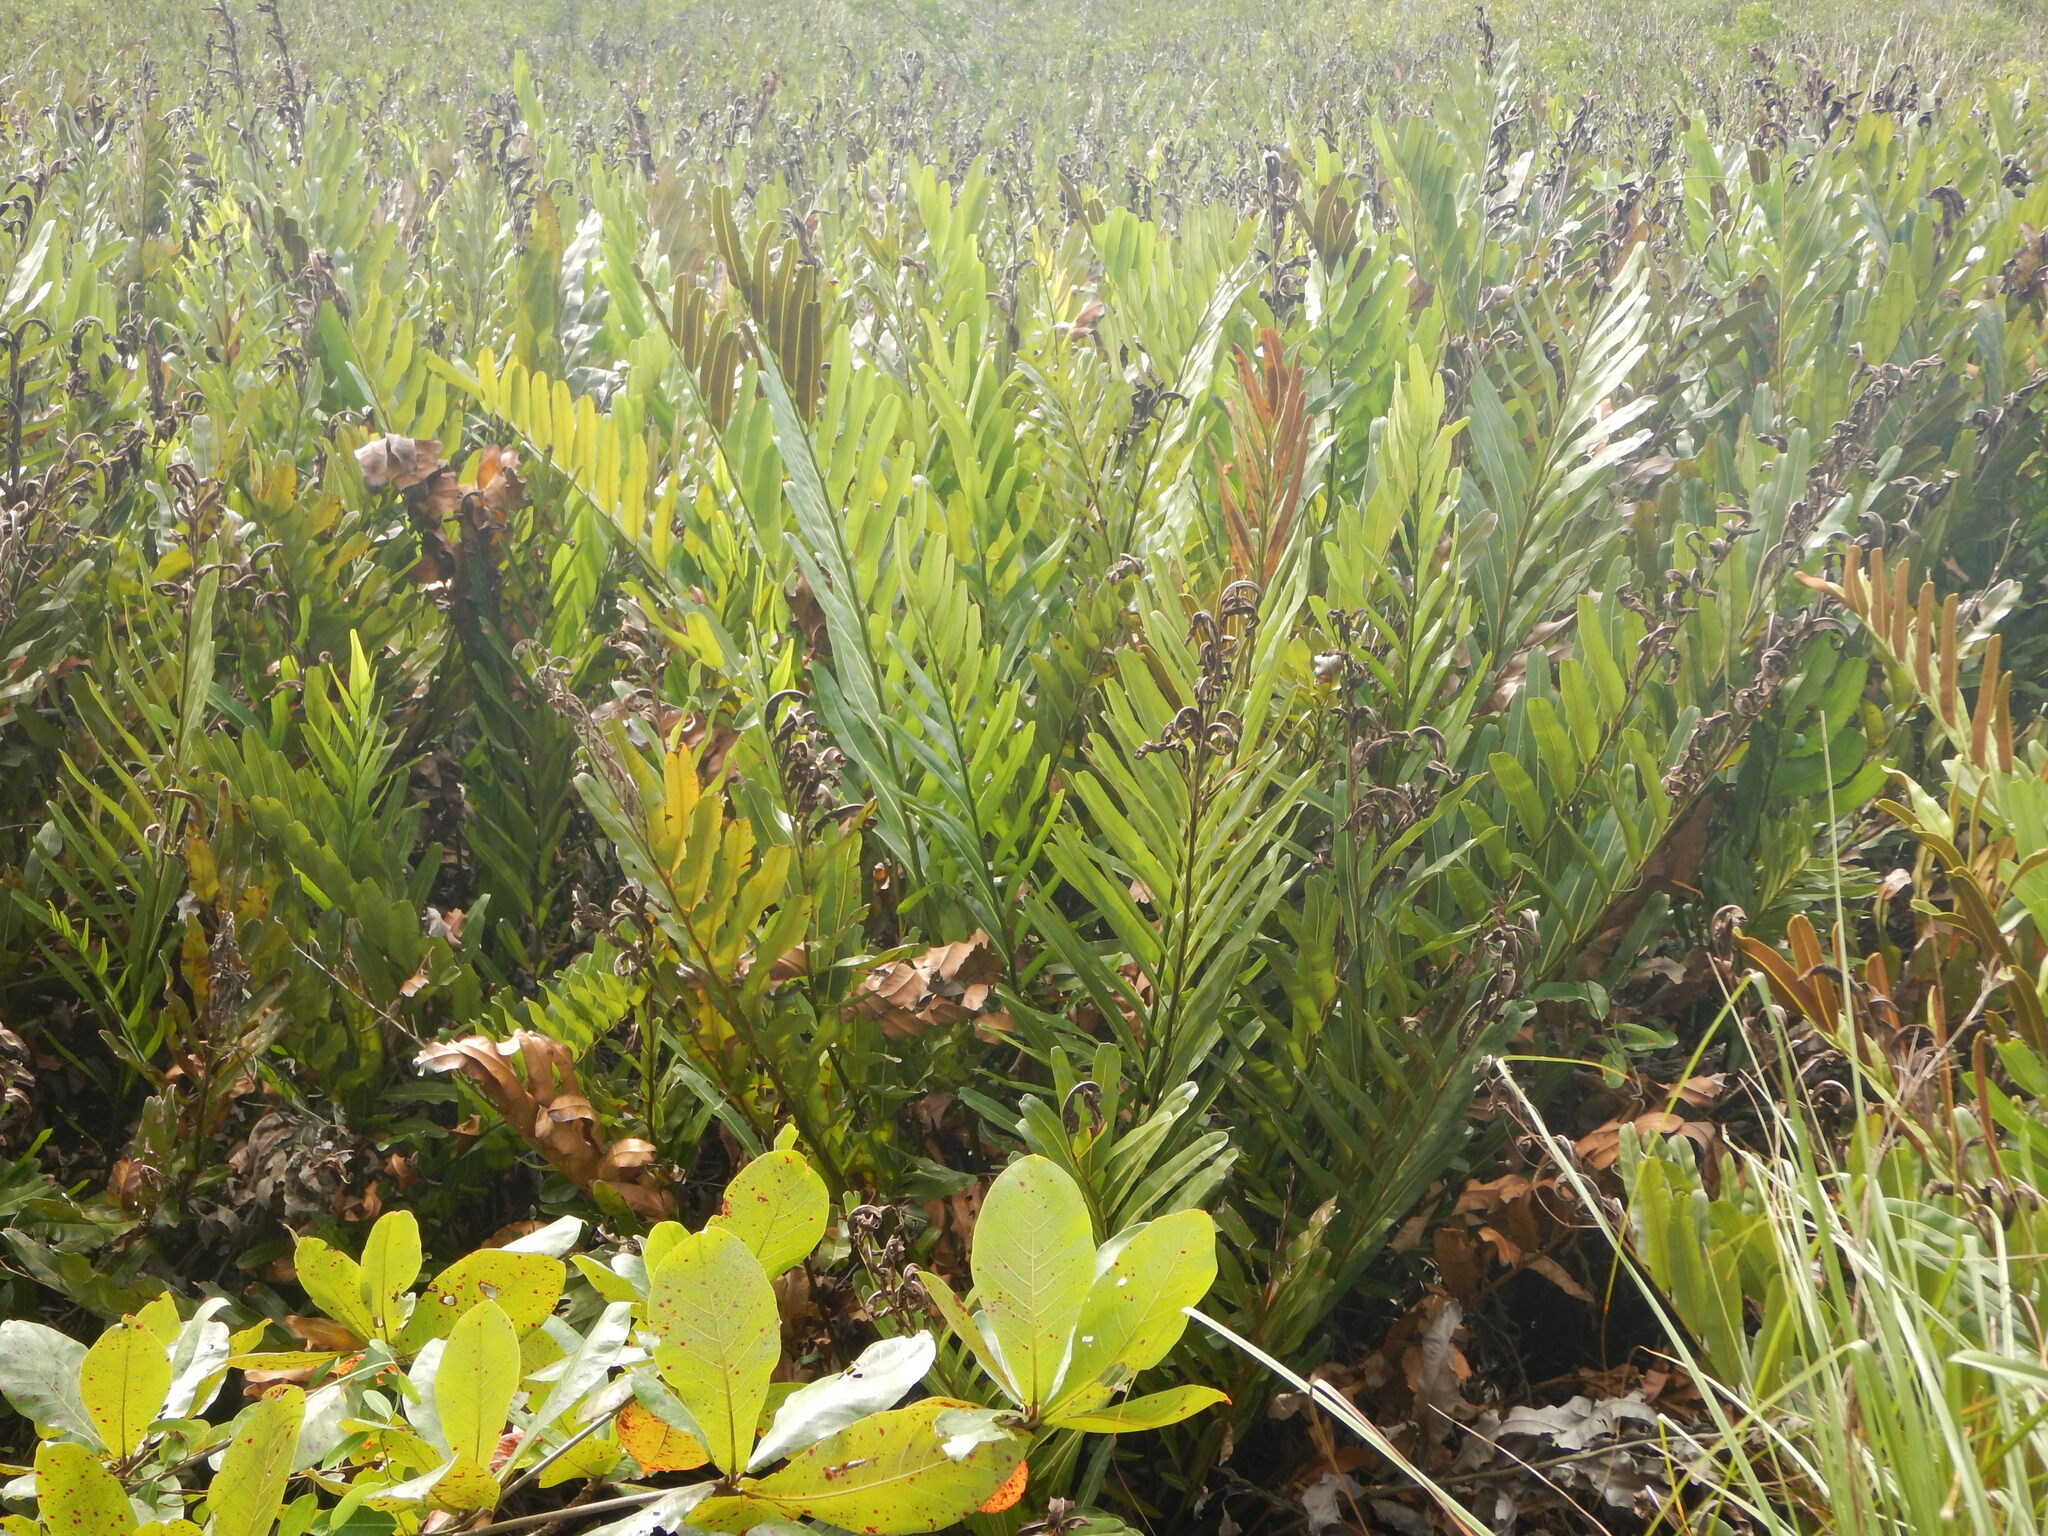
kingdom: Plantae
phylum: Tracheophyta
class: Polypodiopsida
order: Polypodiales
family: Pteridaceae
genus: Acrostichum
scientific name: Acrostichum aureum
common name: Leather fern
